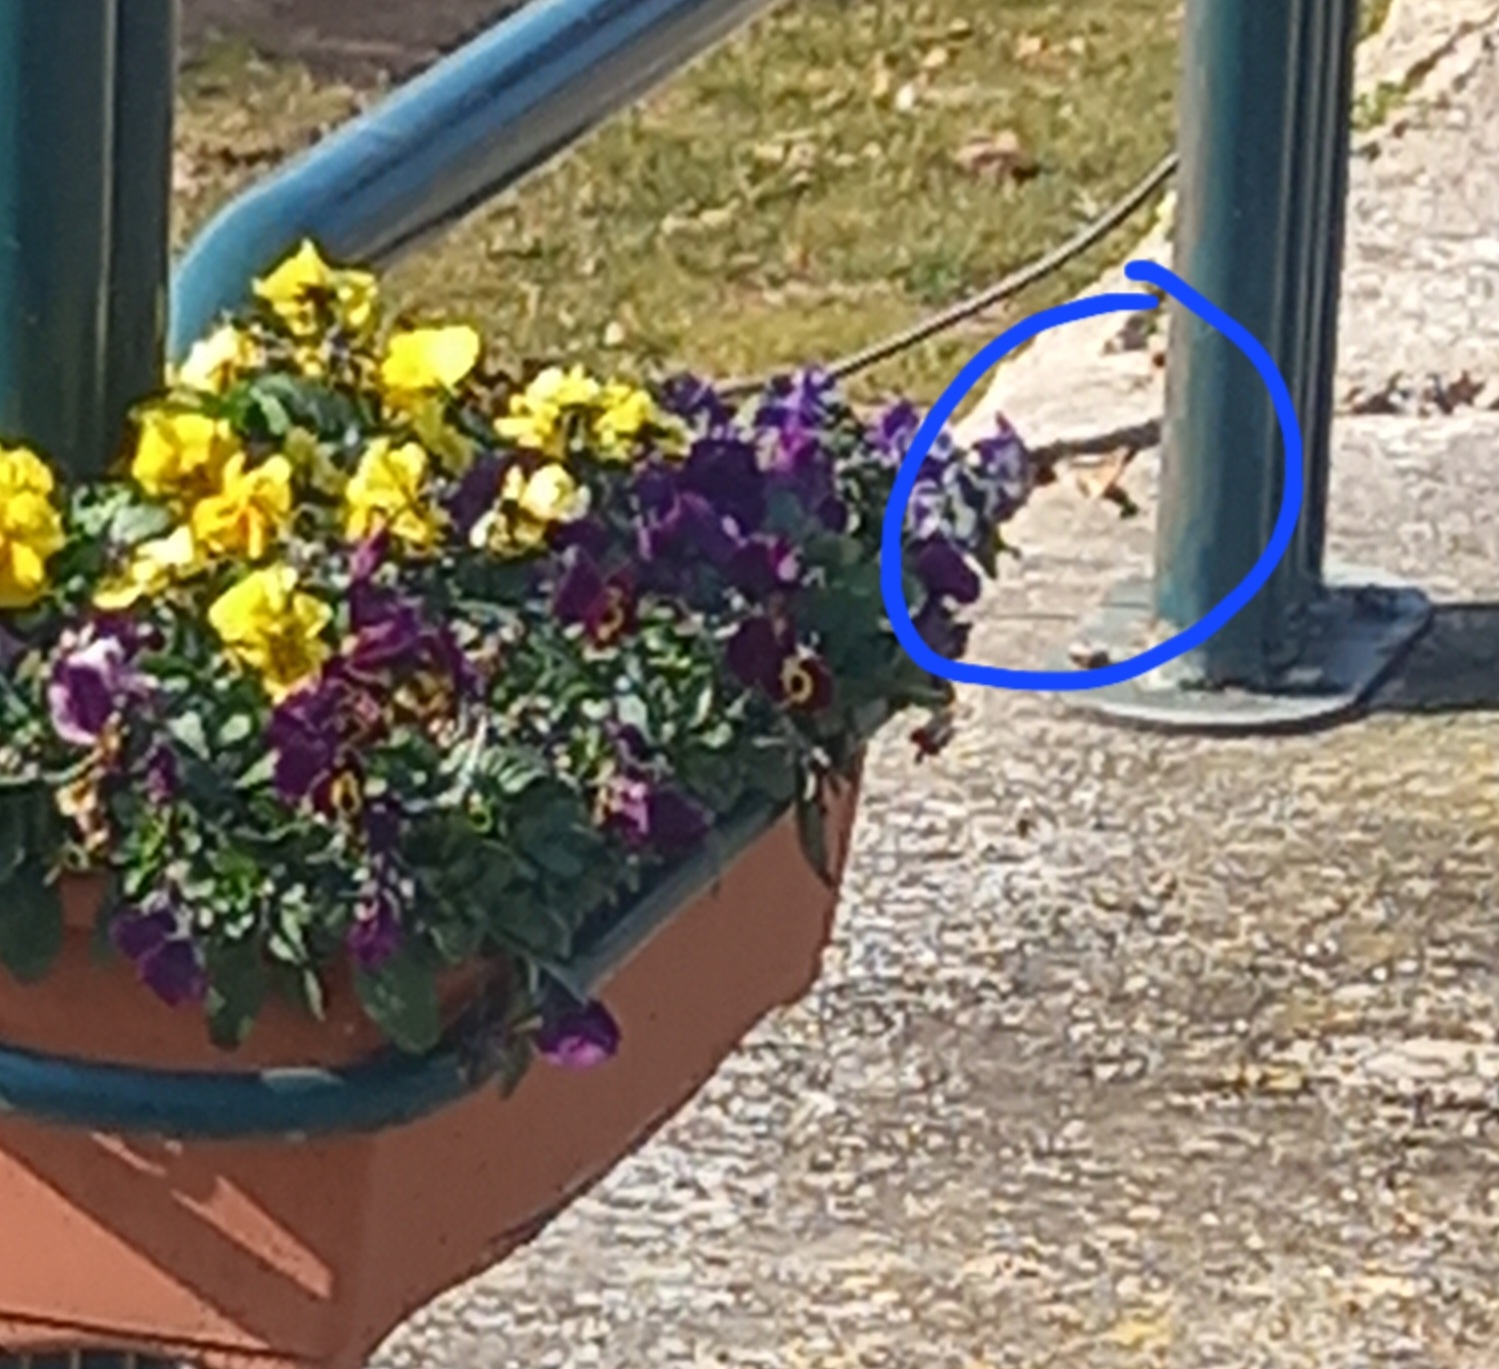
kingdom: Animalia
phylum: Arthropoda
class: Insecta
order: Lepidoptera
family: Sphingidae
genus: Macroglossum
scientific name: Macroglossum stellatarum
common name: Humming-bird hawk-moth
